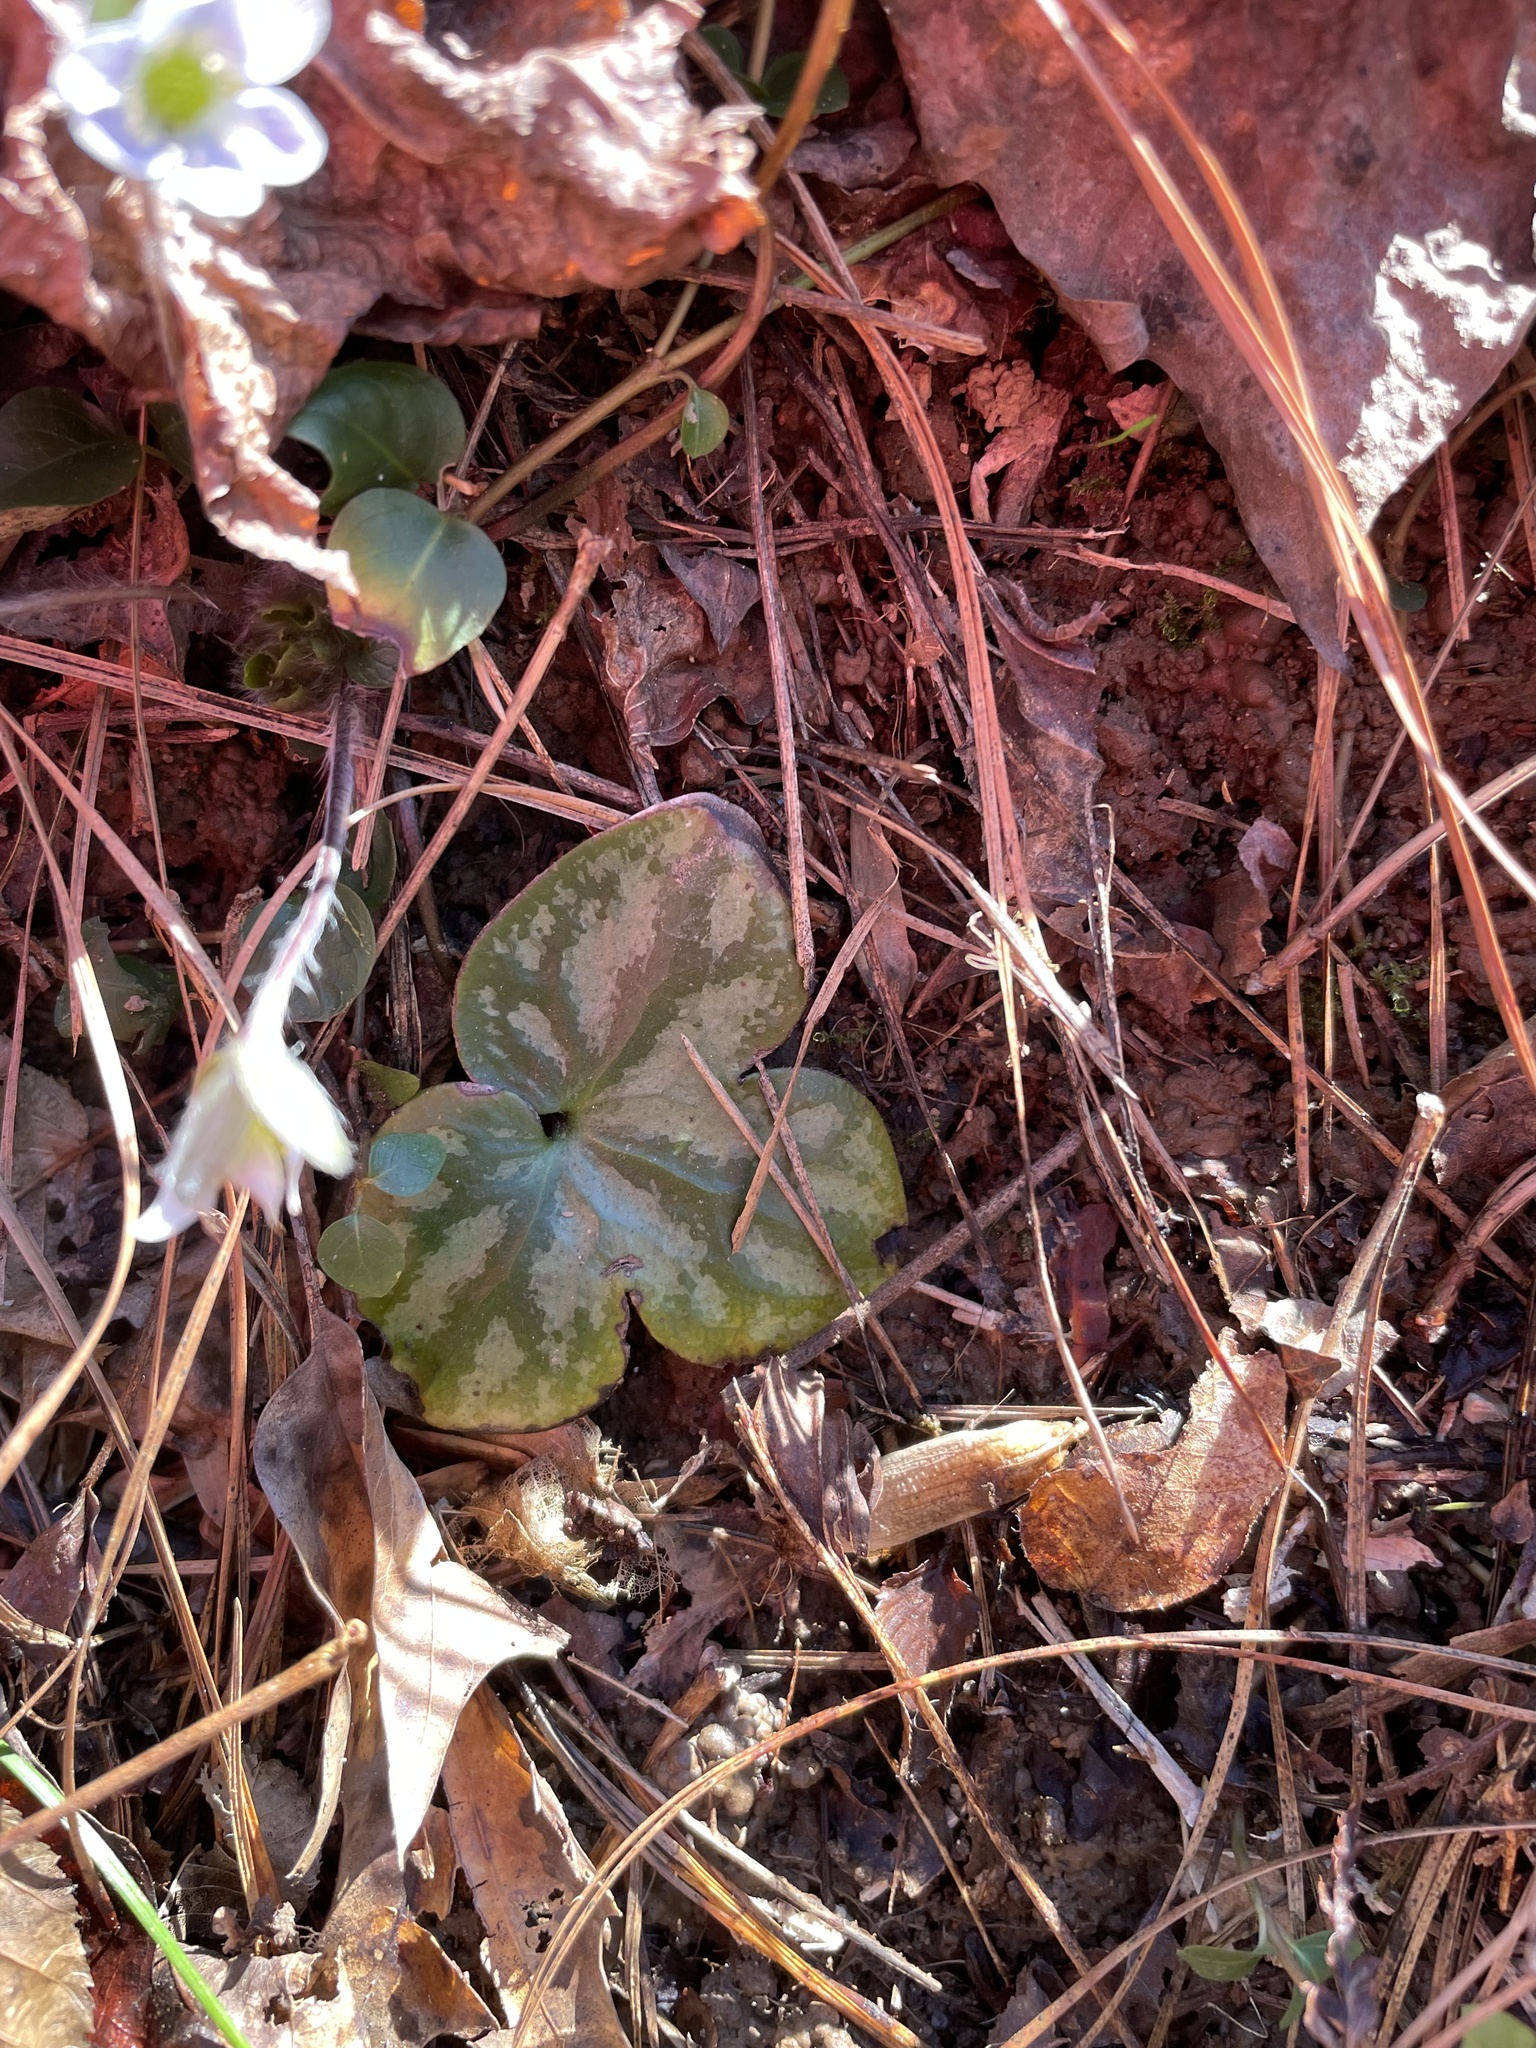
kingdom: Plantae
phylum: Tracheophyta
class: Magnoliopsida
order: Ranunculales
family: Ranunculaceae
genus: Hepatica
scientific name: Hepatica americana
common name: American hepatica
